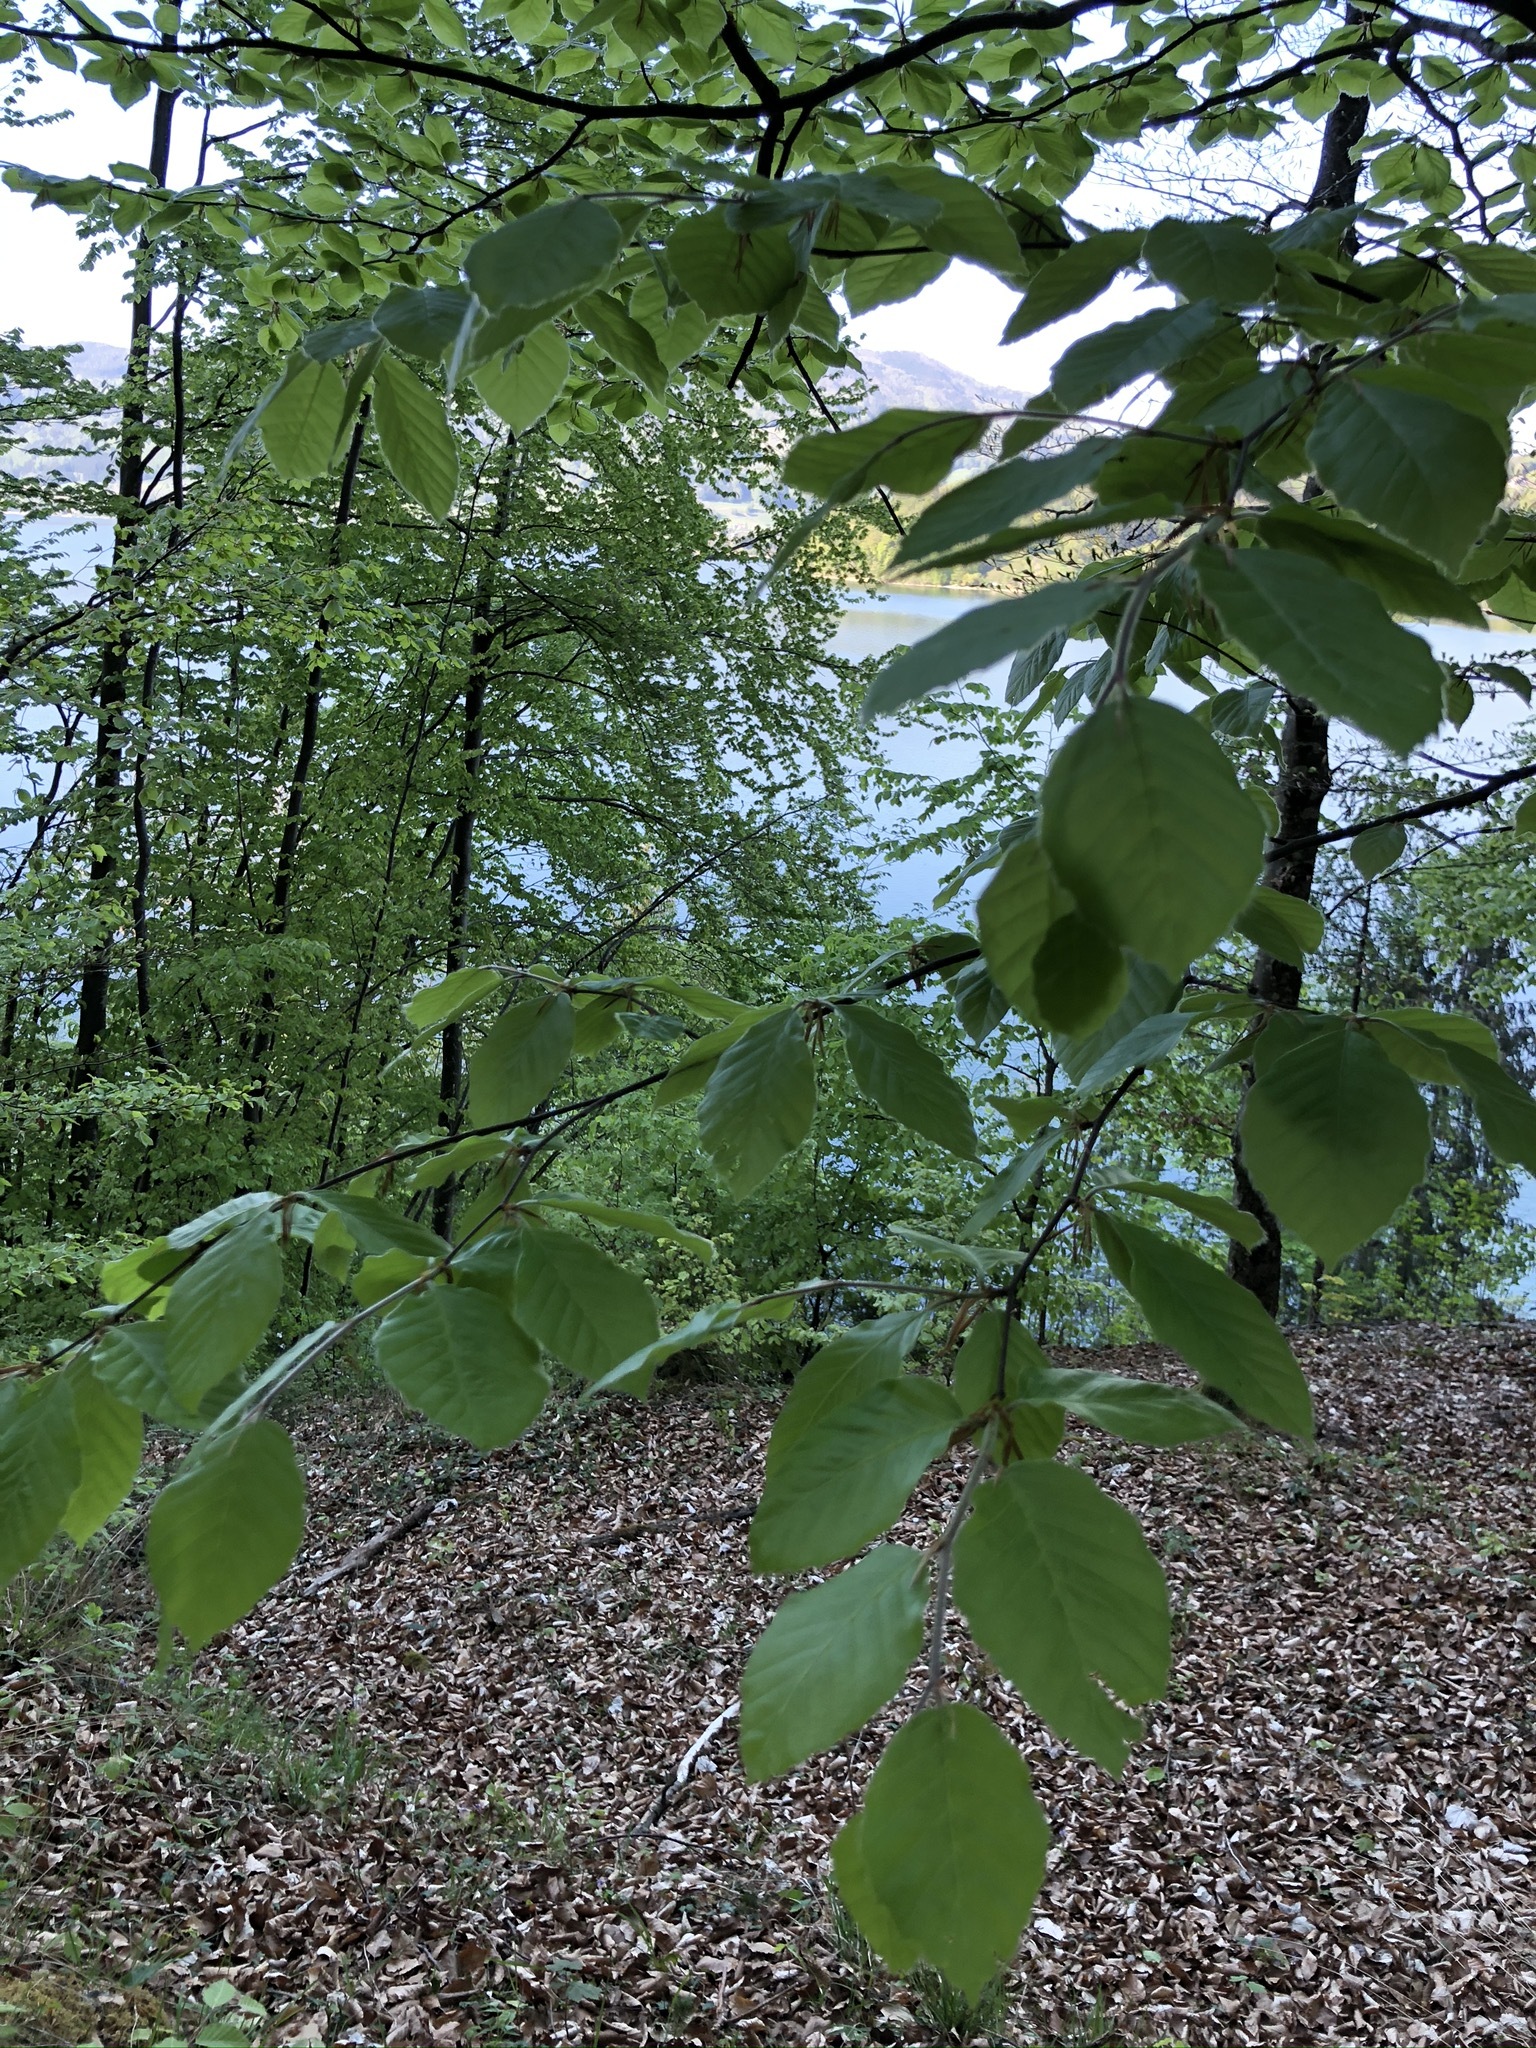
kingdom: Plantae
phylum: Tracheophyta
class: Magnoliopsida
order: Fagales
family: Fagaceae
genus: Fagus
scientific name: Fagus sylvatica
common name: Beech
